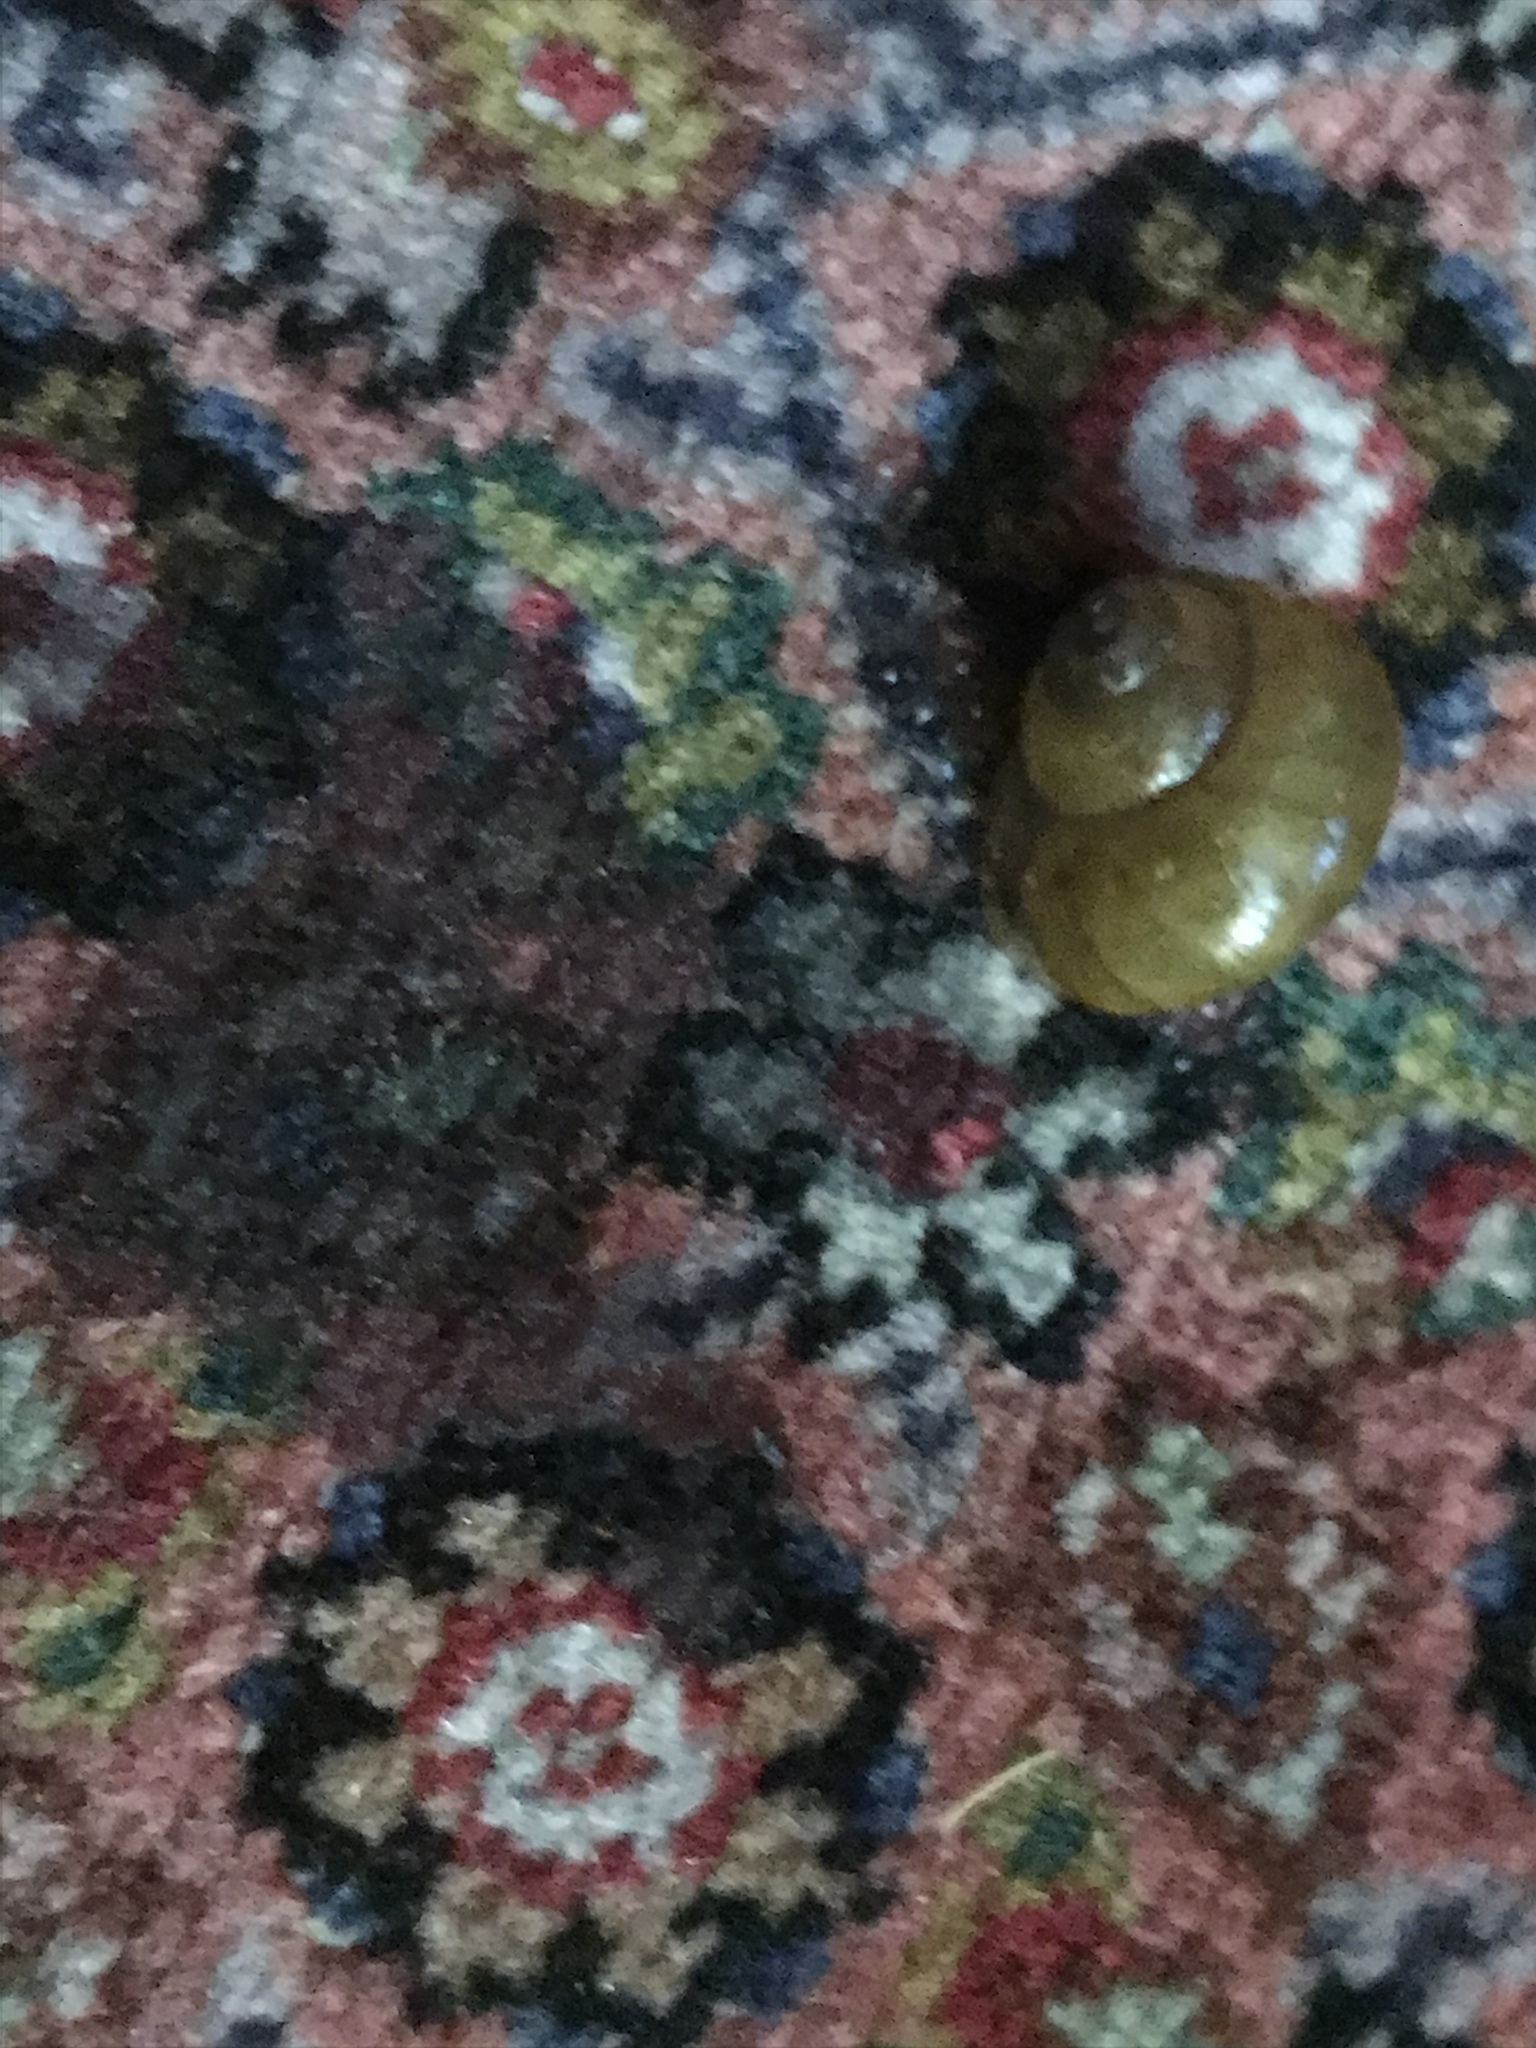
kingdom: Animalia
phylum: Mollusca
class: Gastropoda
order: Architaenioglossa
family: Viviparidae
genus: Cipangopaludina
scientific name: Cipangopaludina chinensis
